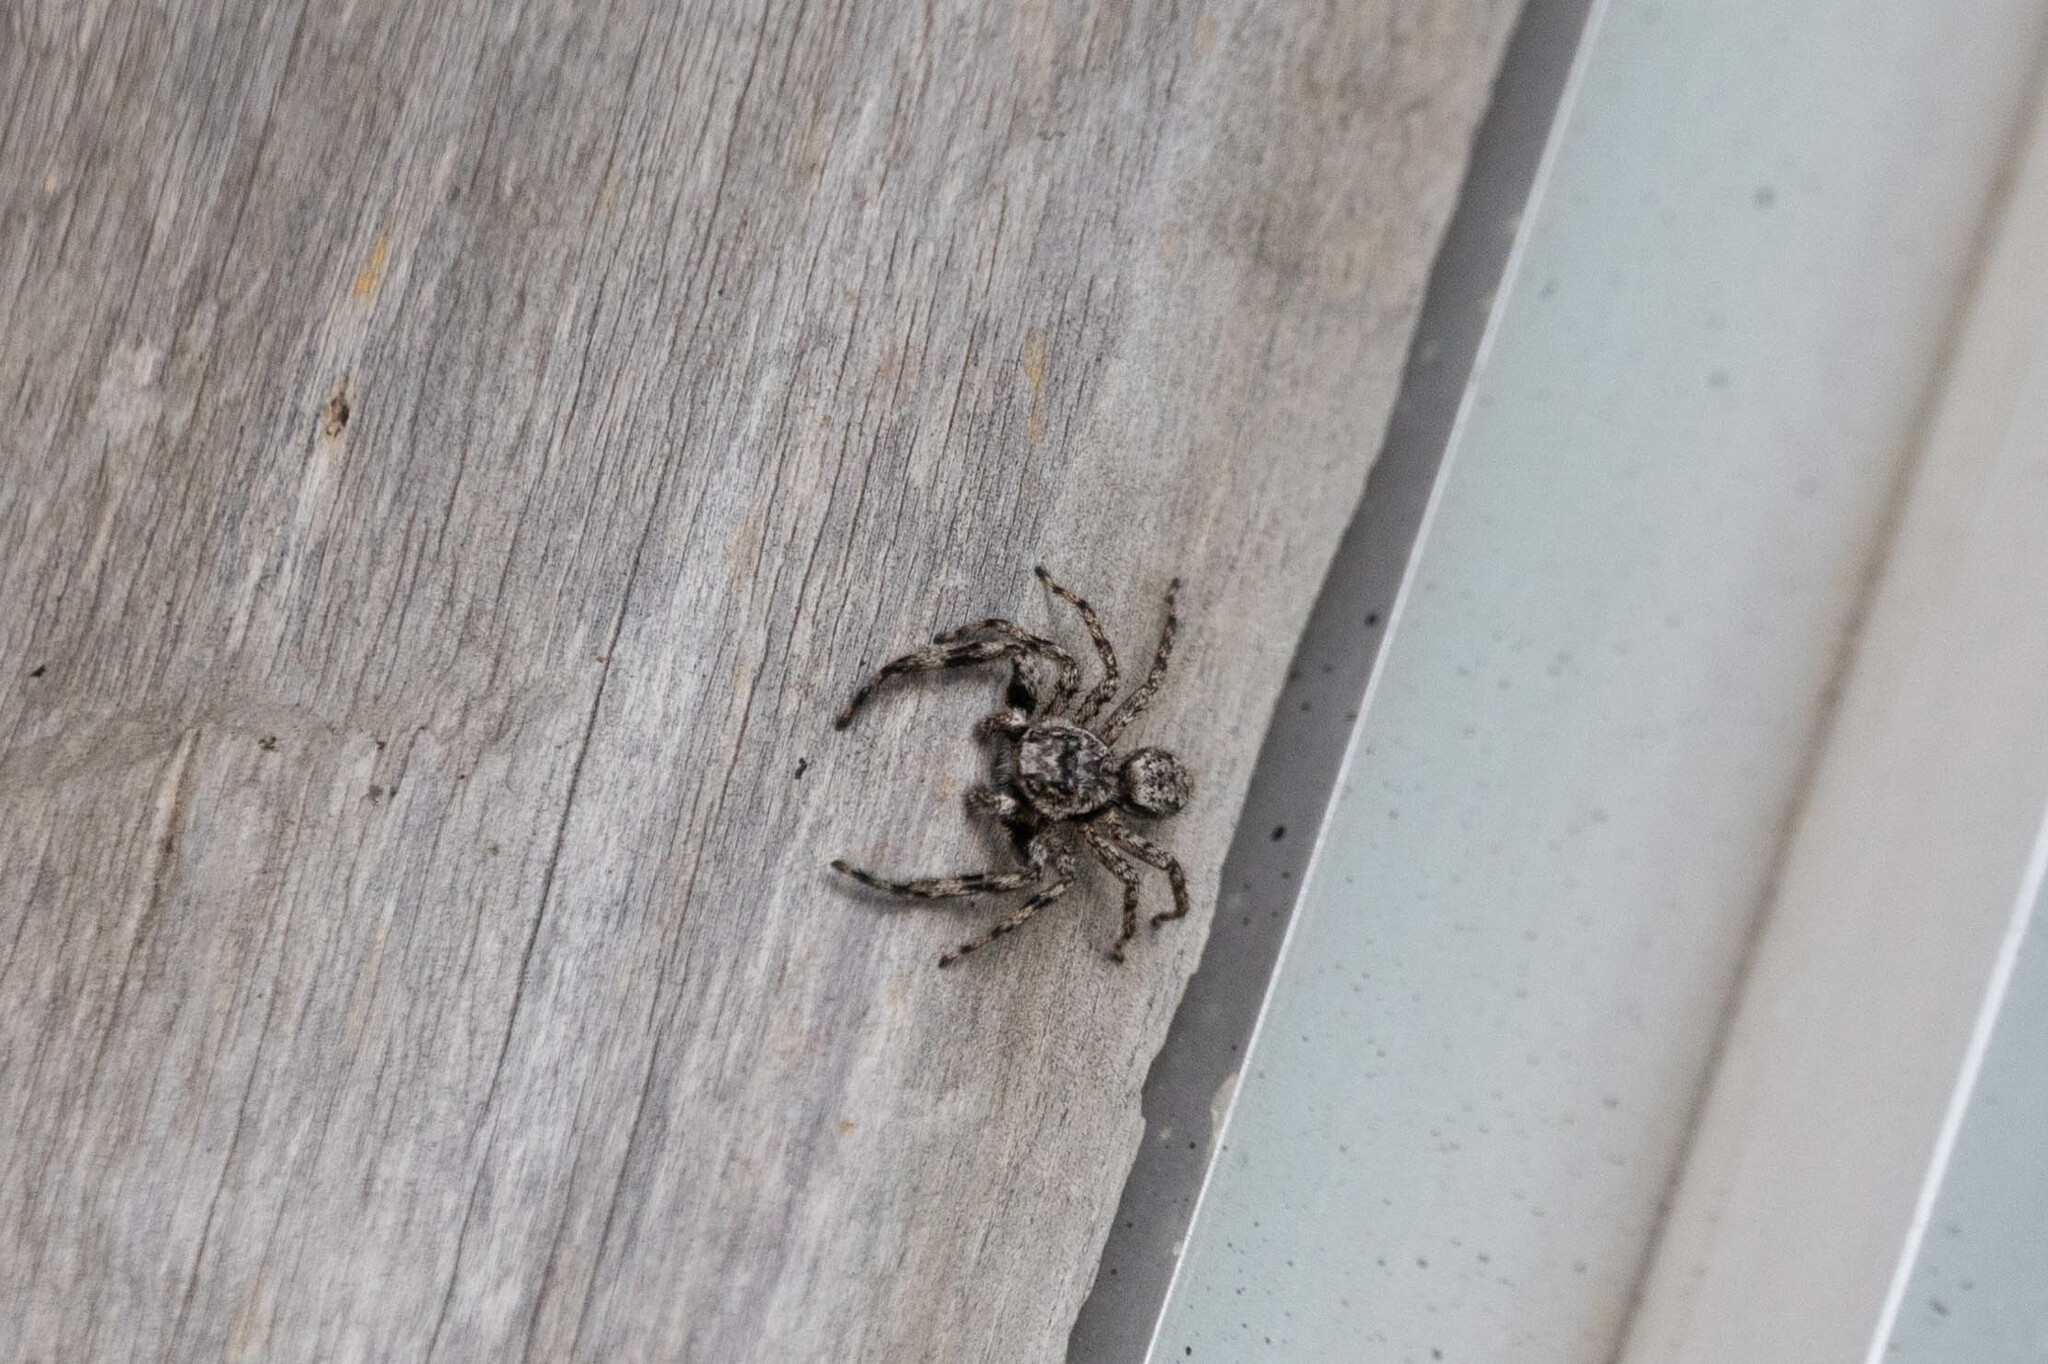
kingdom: Animalia
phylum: Arthropoda
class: Arachnida
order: Araneae
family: Salticidae
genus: Platycryptus
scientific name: Platycryptus undatus
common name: Tan jumping spider
